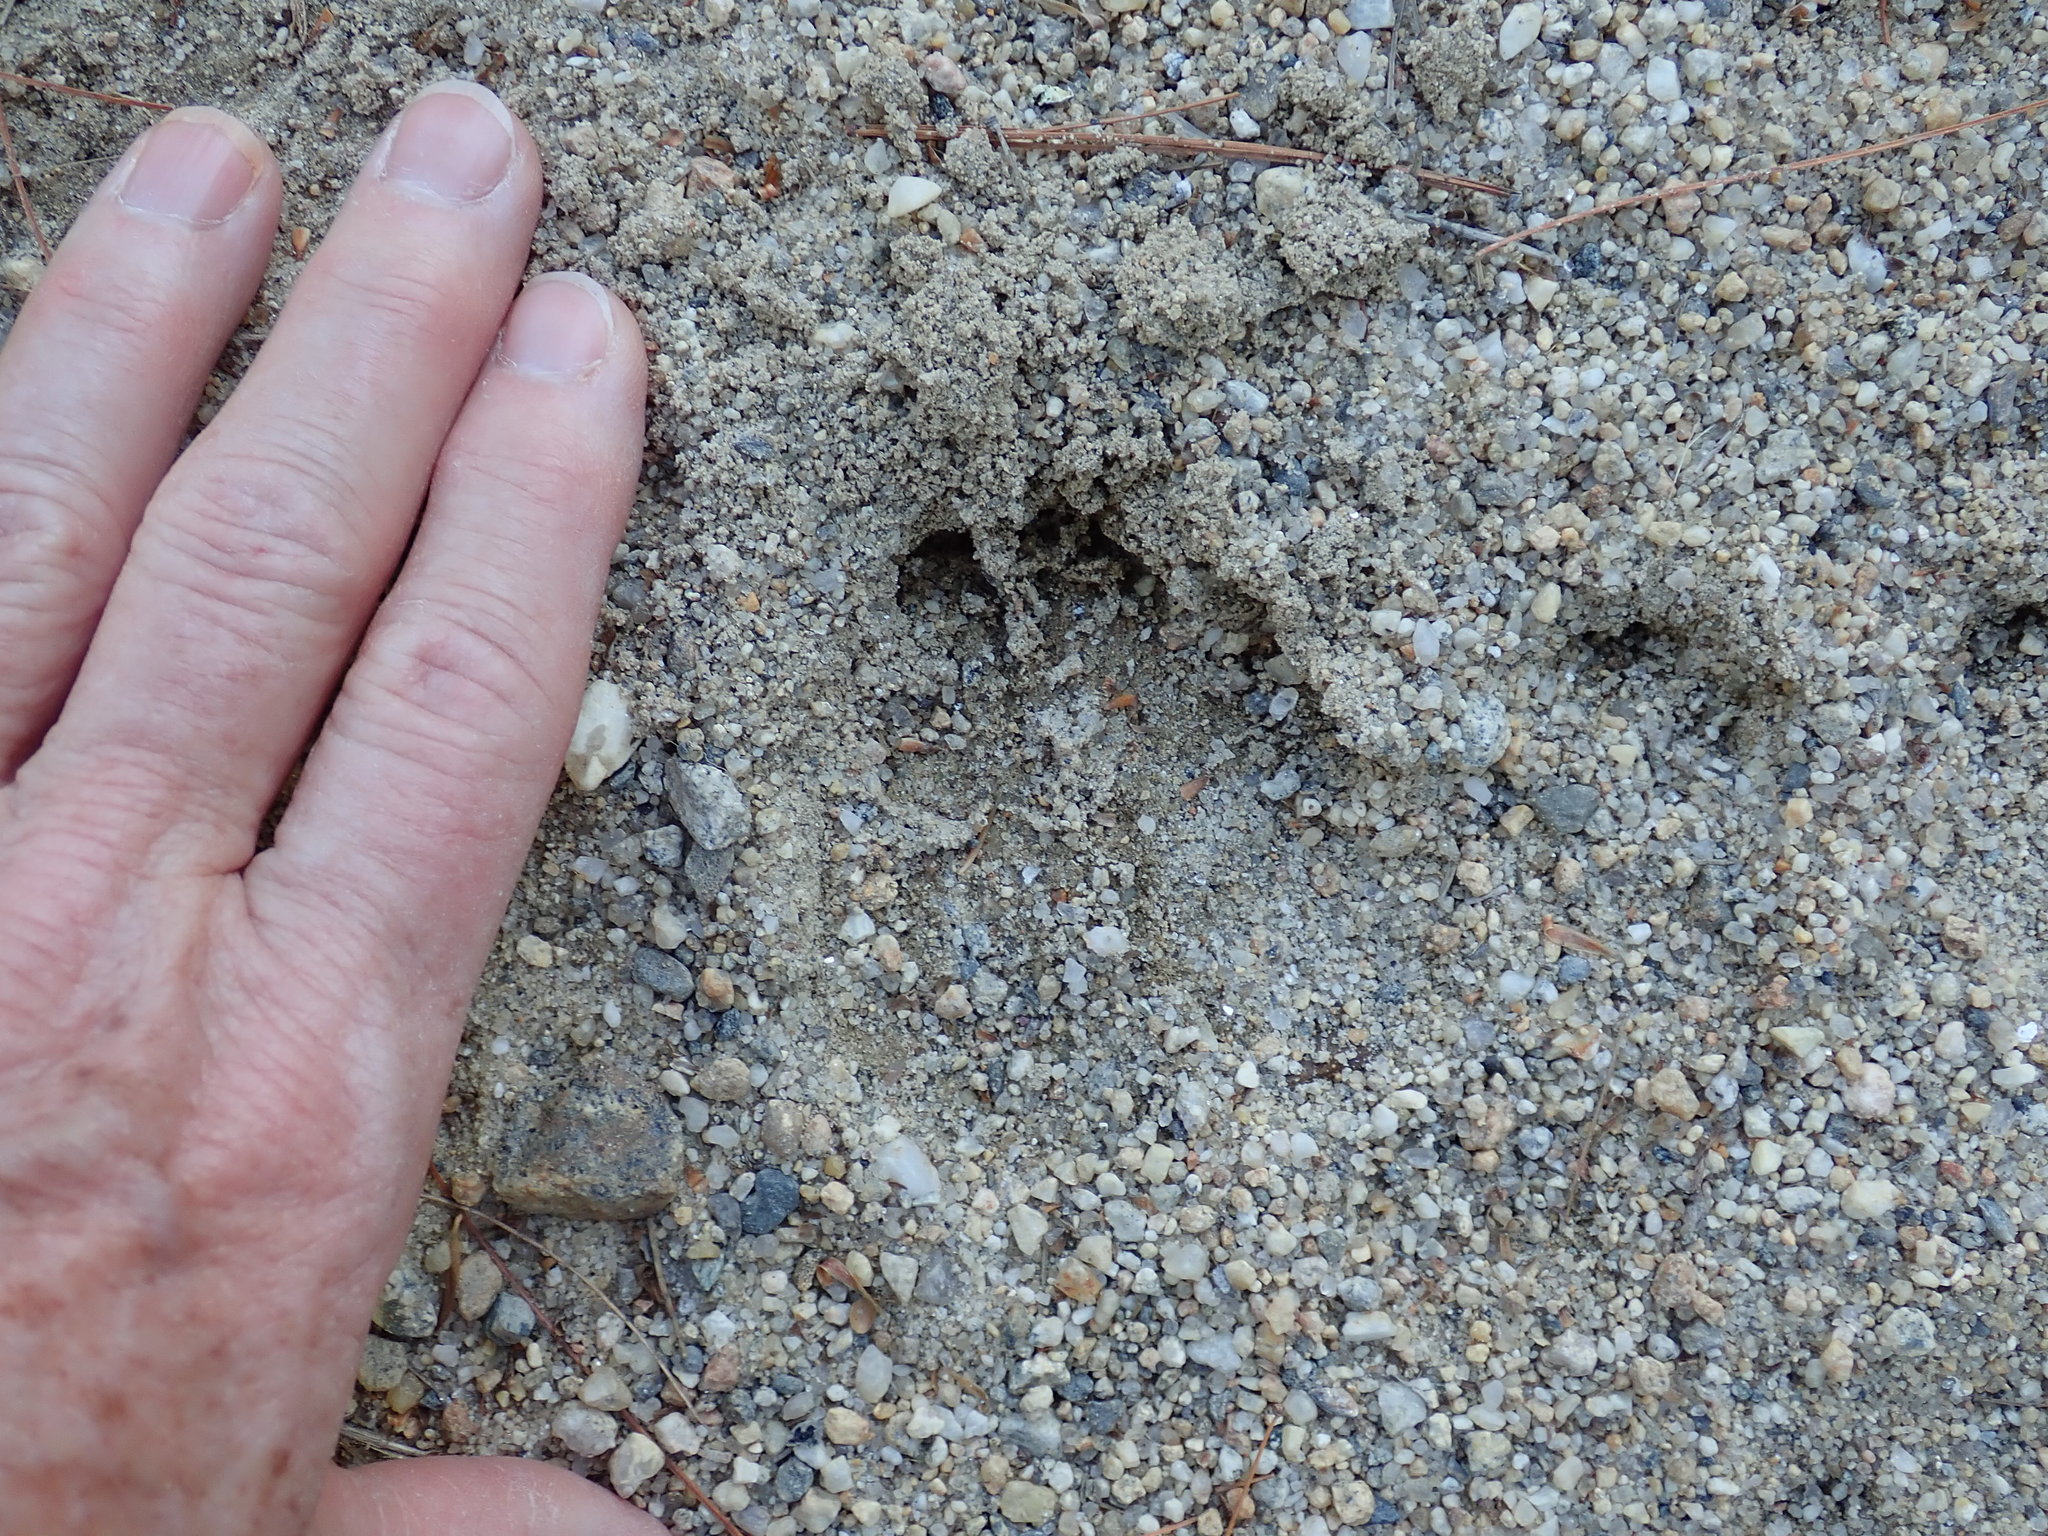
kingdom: Animalia
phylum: Chordata
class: Mammalia
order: Artiodactyla
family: Cervidae
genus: Odocoileus
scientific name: Odocoileus virginianus
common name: White-tailed deer
